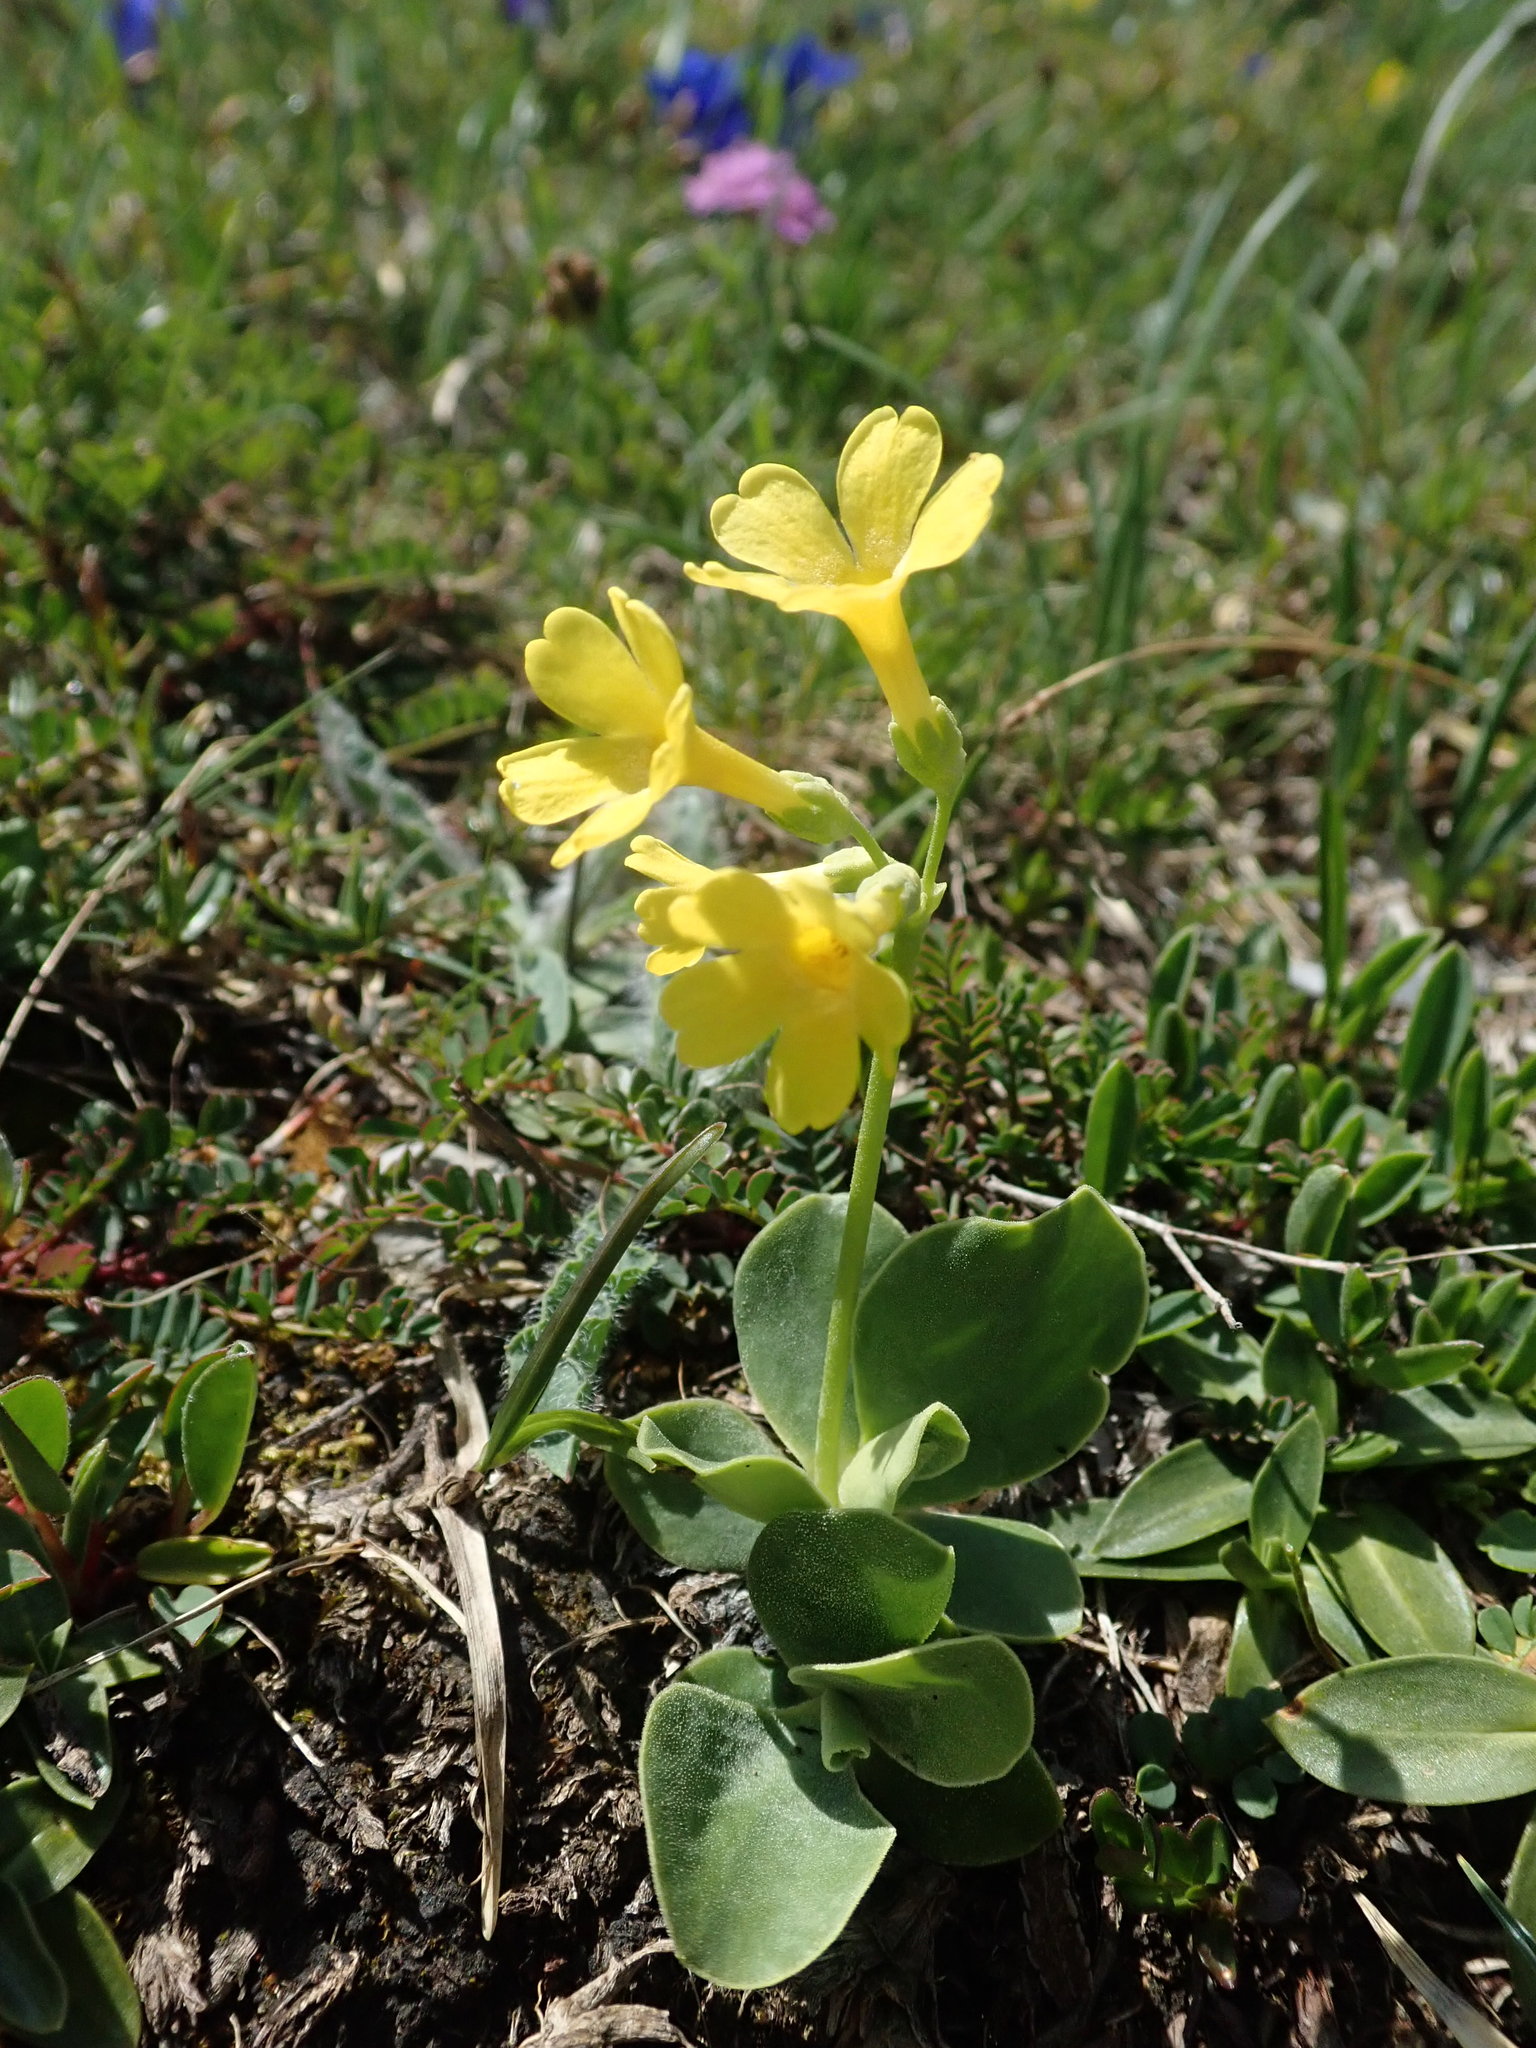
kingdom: Plantae
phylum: Tracheophyta
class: Magnoliopsida
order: Ericales
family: Primulaceae
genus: Primula
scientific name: Primula auricula
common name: Auricula
